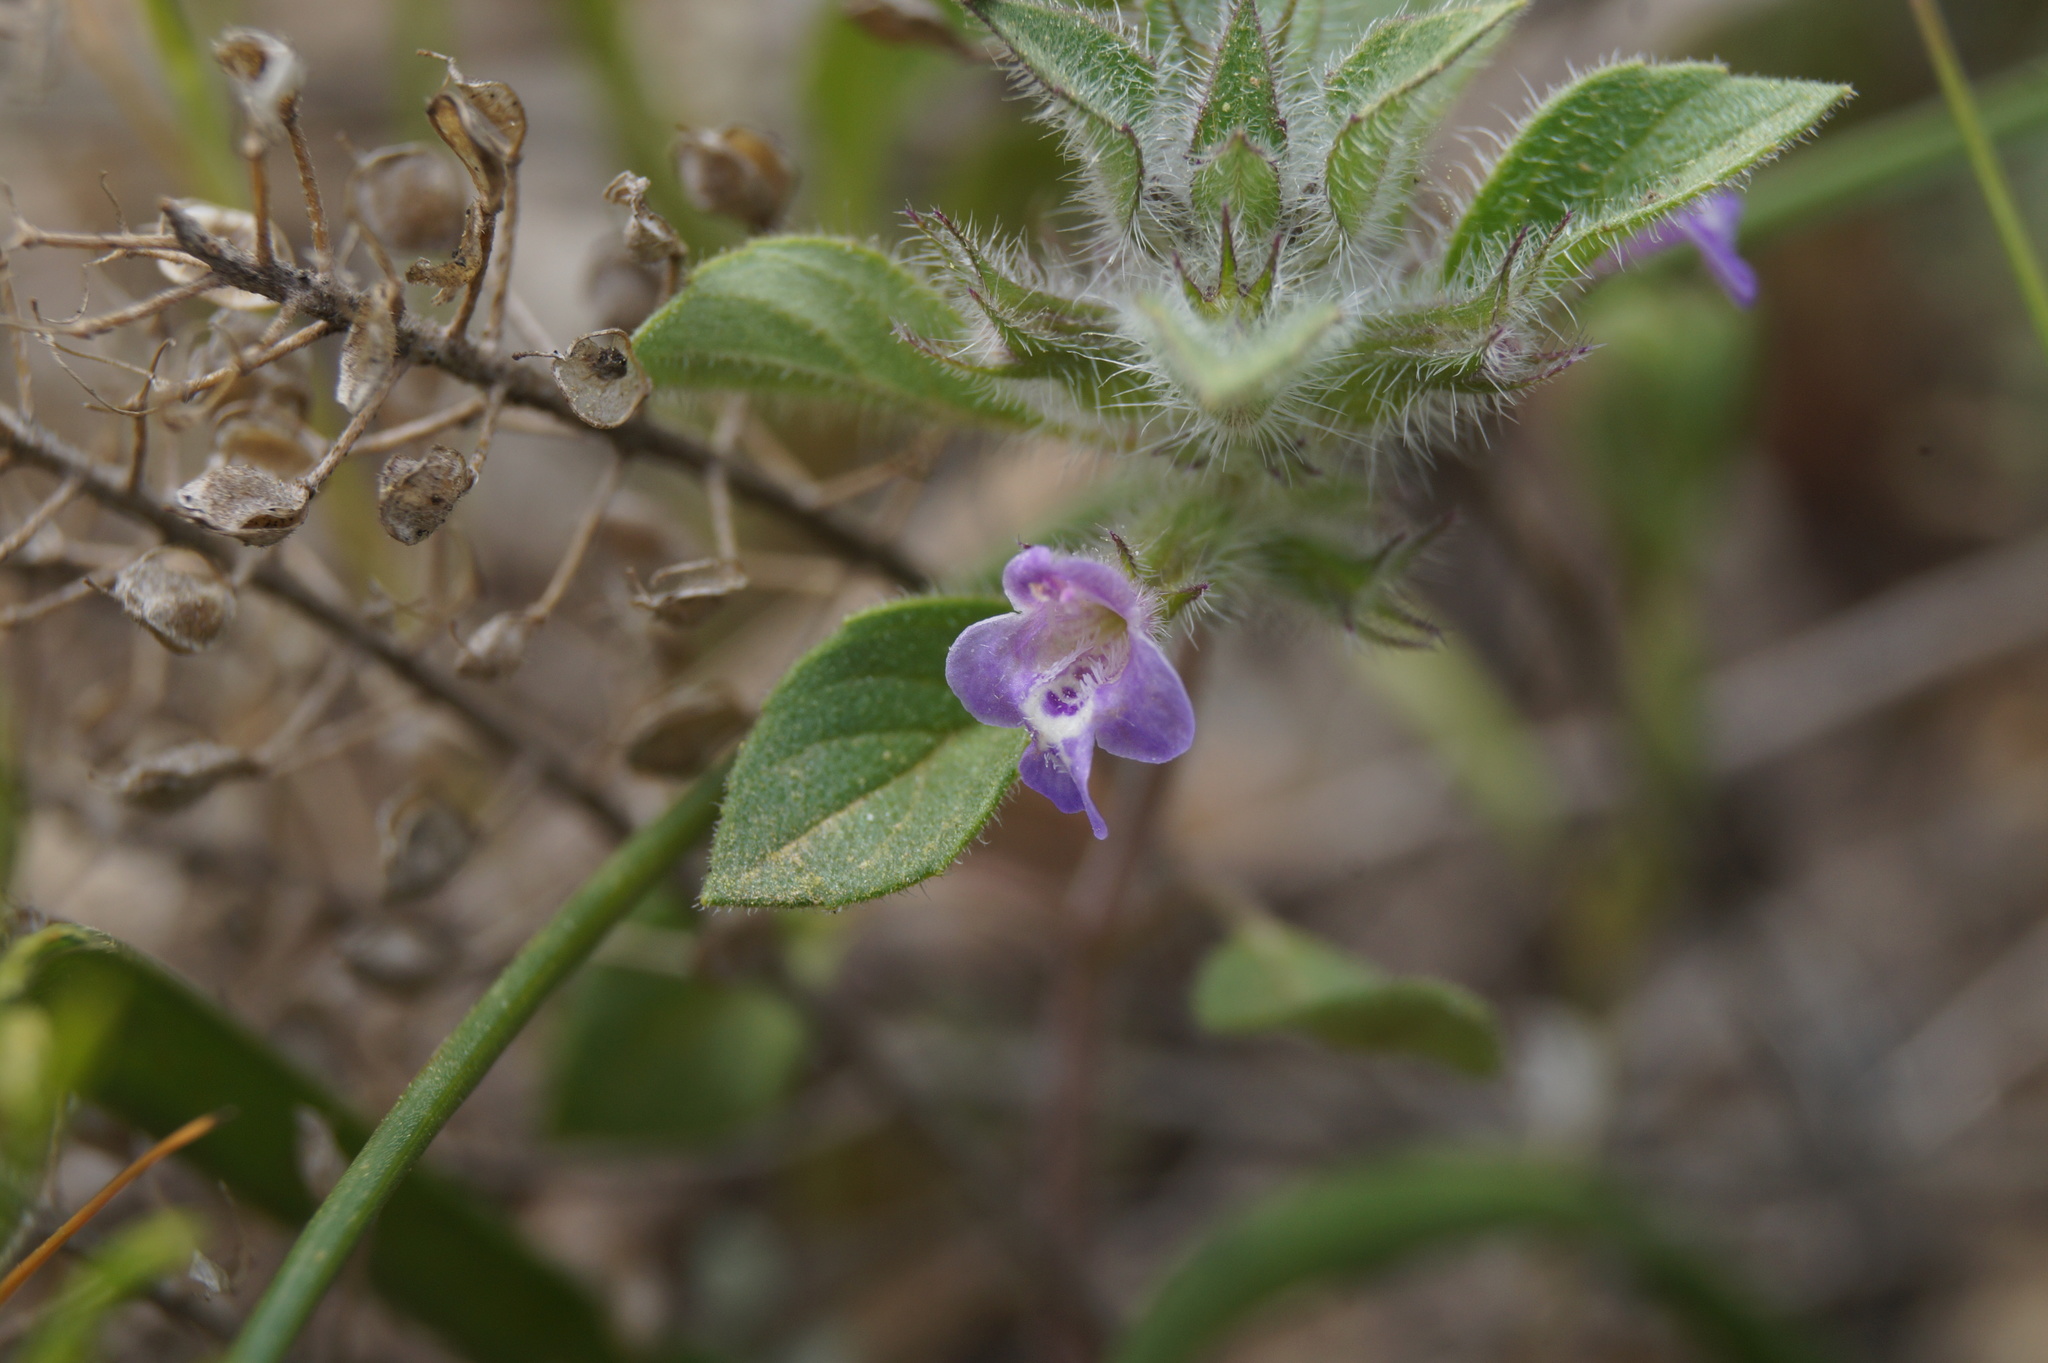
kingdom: Plantae
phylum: Tracheophyta
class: Magnoliopsida
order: Lamiales
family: Lamiaceae
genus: Clinopodium
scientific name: Clinopodium graveolens
